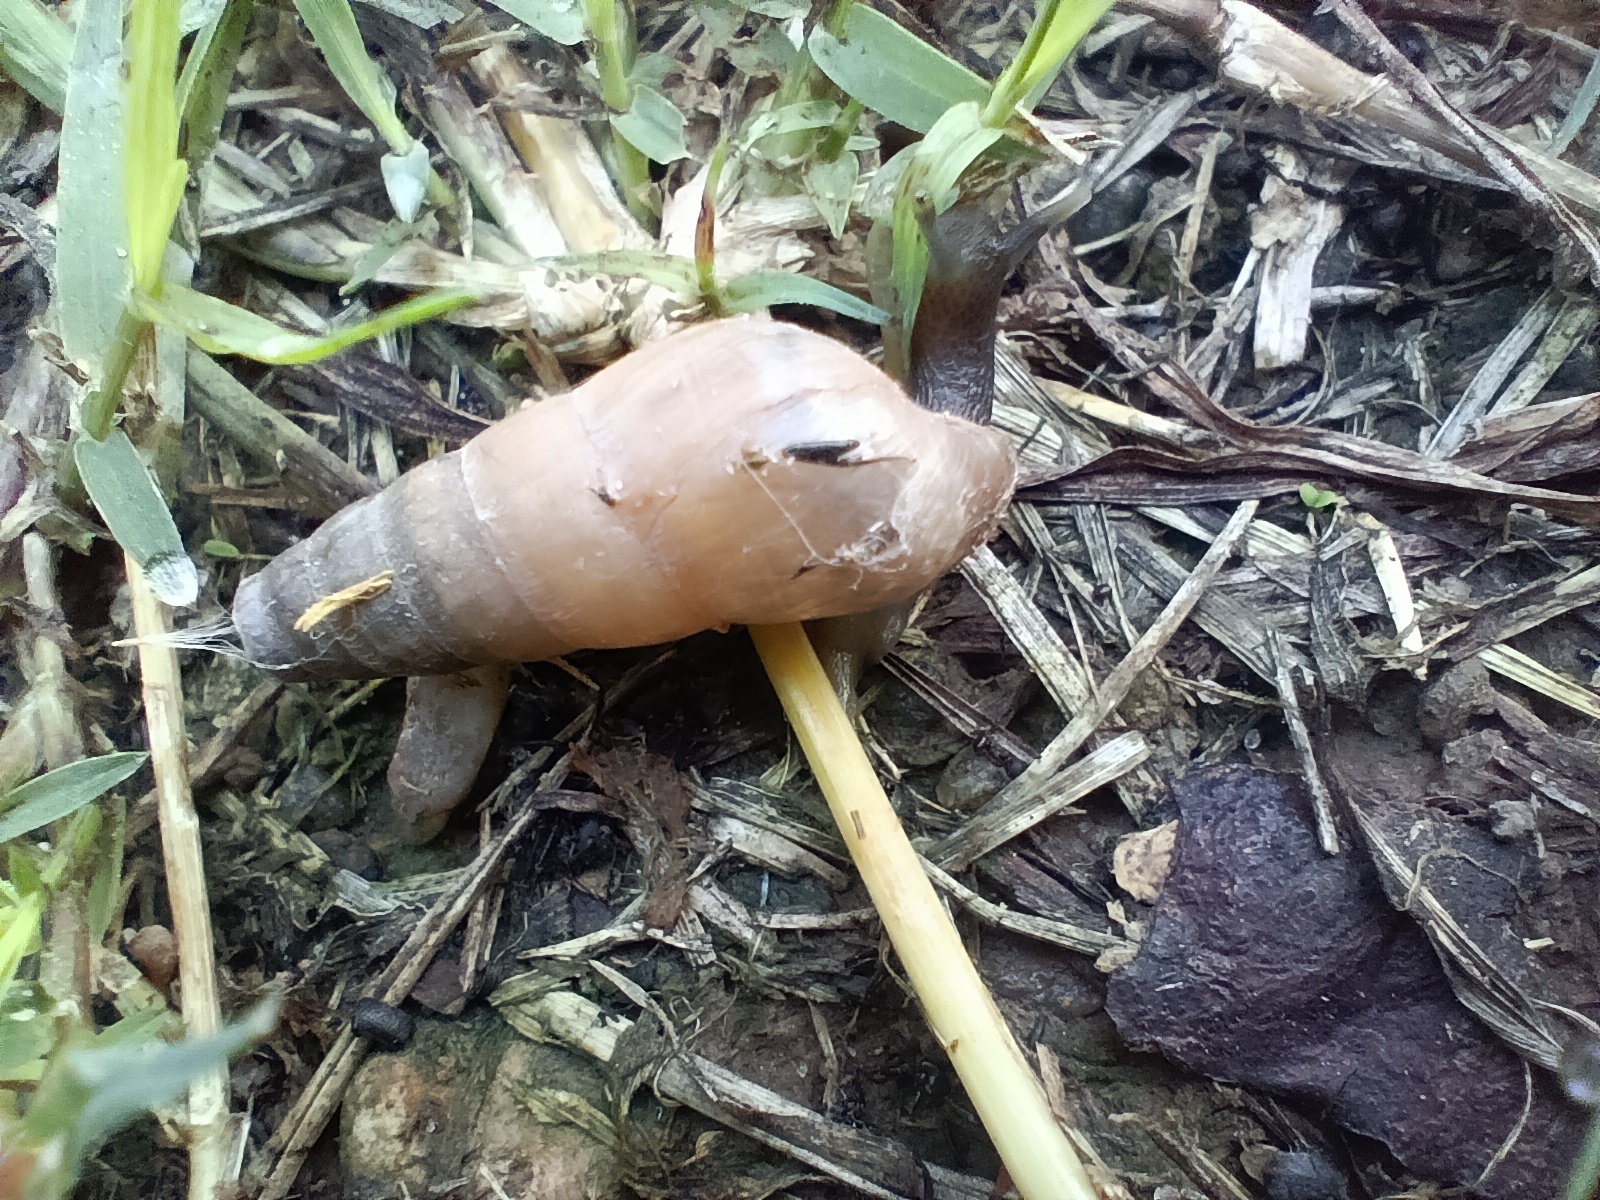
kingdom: Animalia
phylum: Mollusca
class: Gastropoda
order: Stylommatophora
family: Achatinidae
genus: Rumina
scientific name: Rumina decollata
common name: Decollate snail
